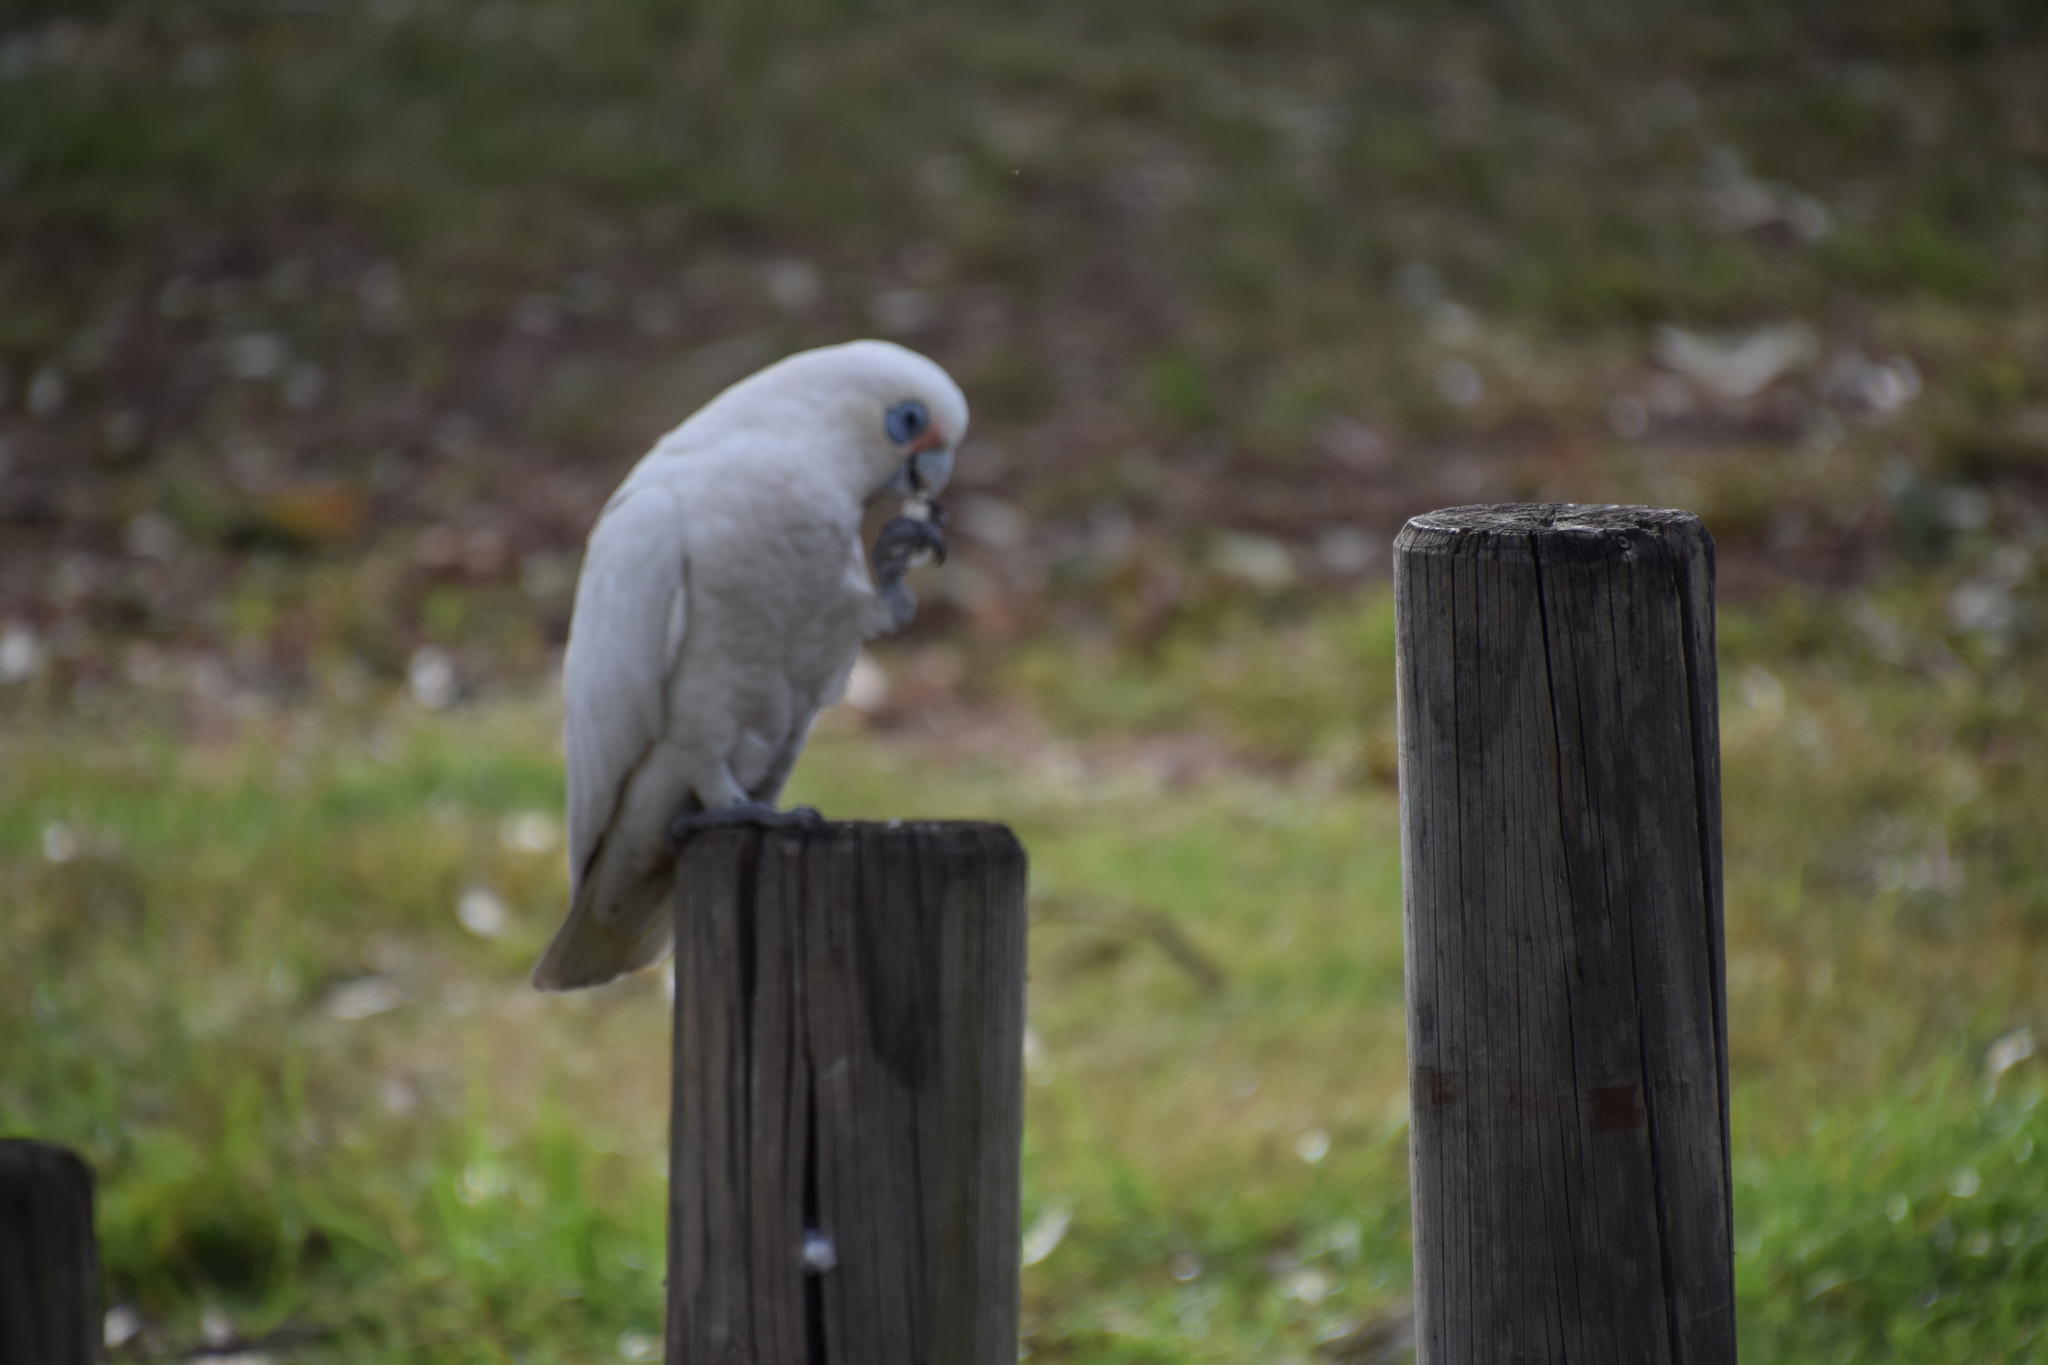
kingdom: Animalia
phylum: Chordata
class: Aves
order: Psittaciformes
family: Psittacidae
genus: Cacatua
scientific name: Cacatua sanguinea
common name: Little corella
